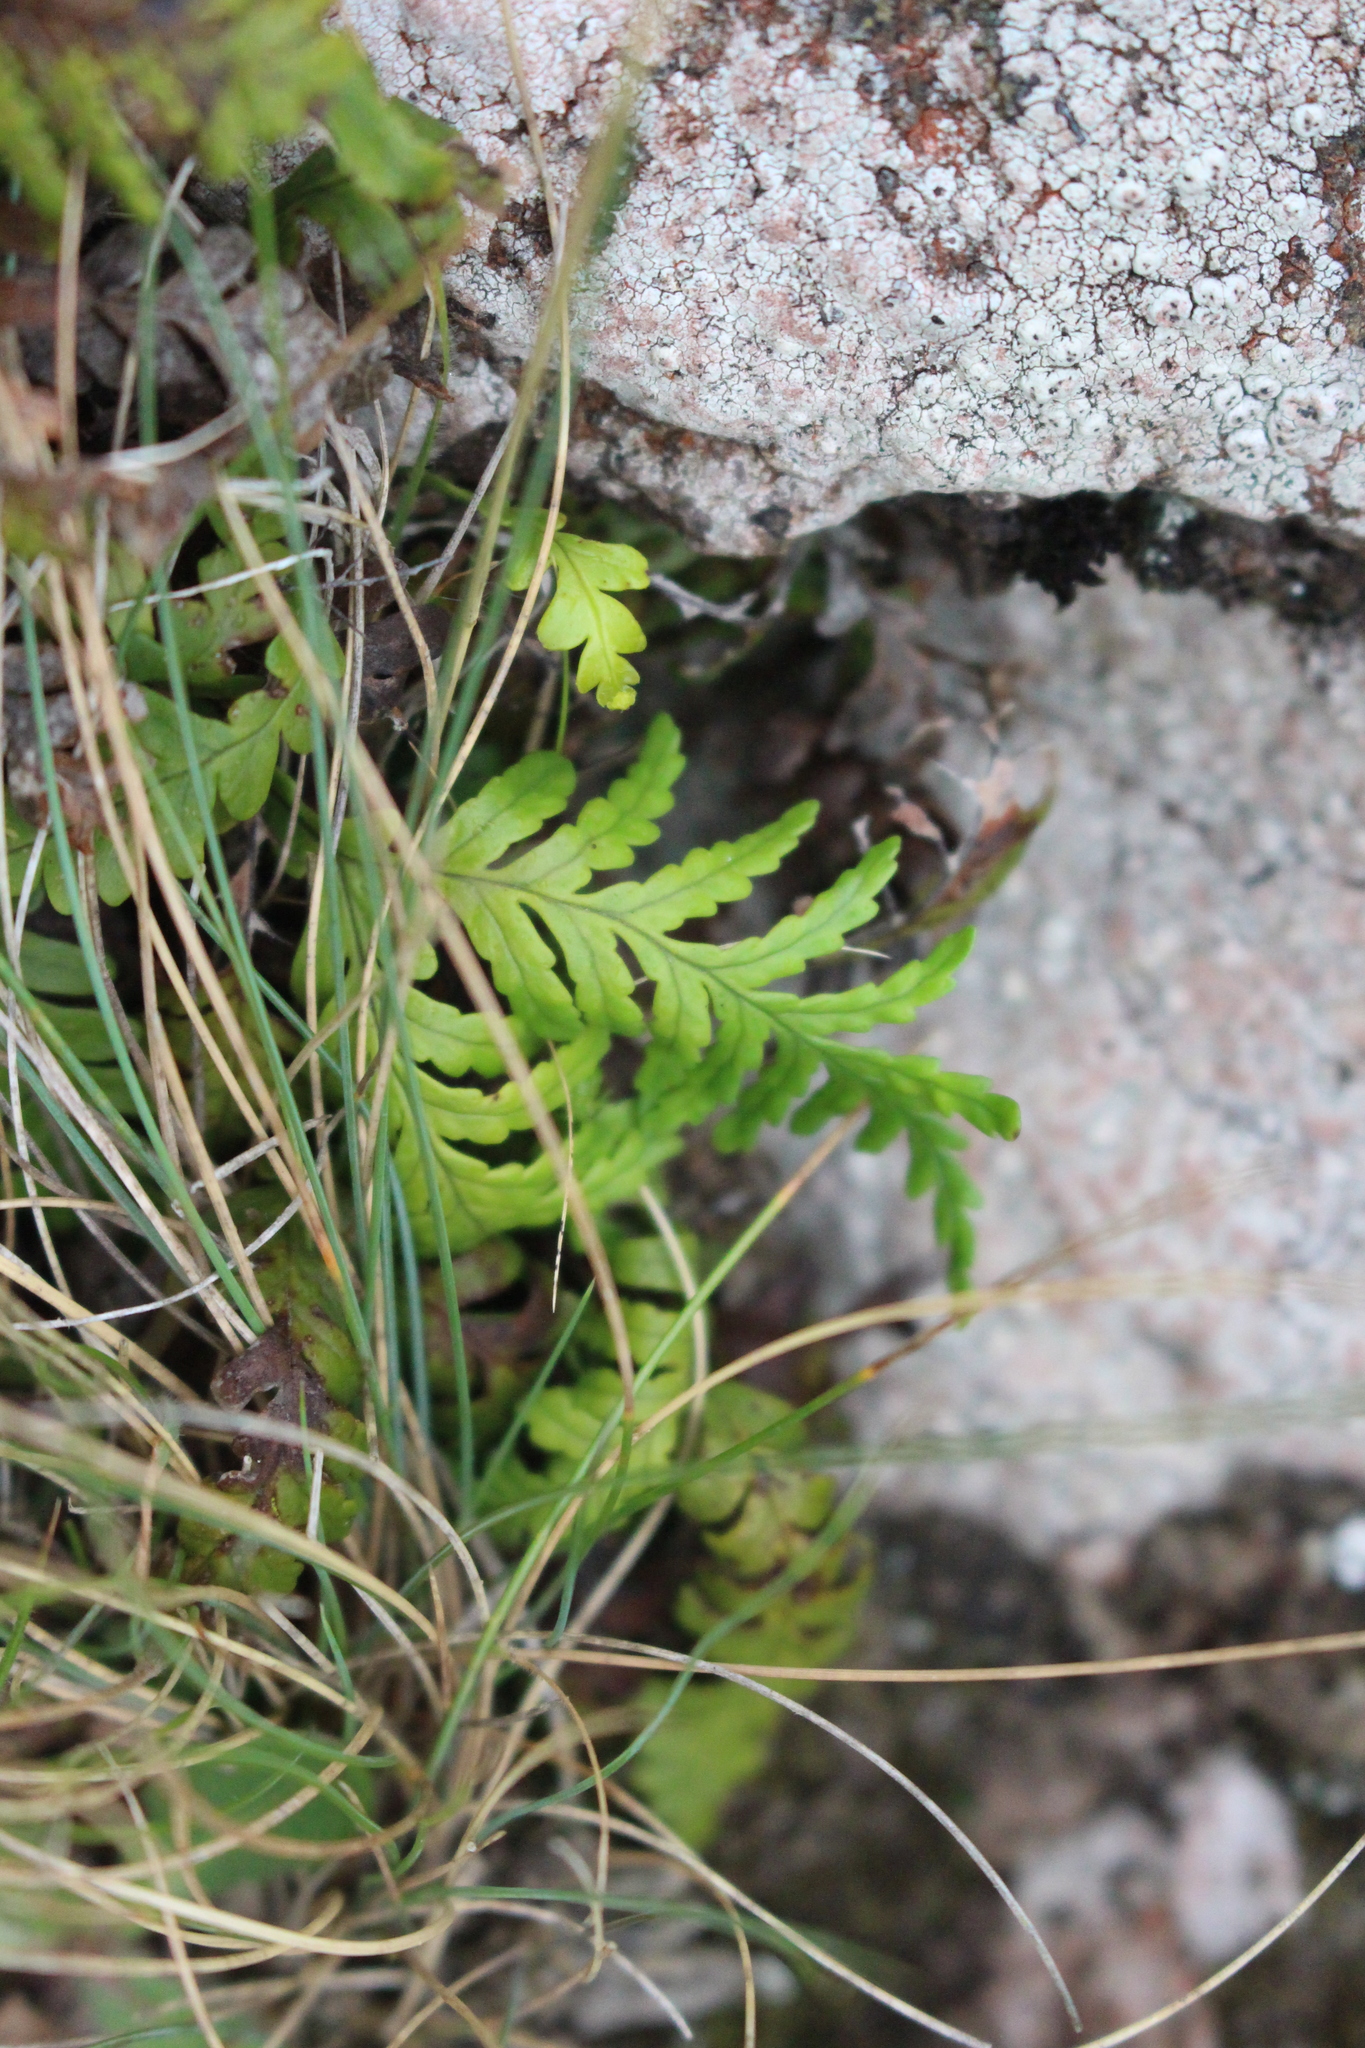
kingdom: Plantae
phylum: Tracheophyta
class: Polypodiopsida
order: Polypodiales
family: Polypodiaceae
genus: Notogrammitis
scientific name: Notogrammitis heterophylla
